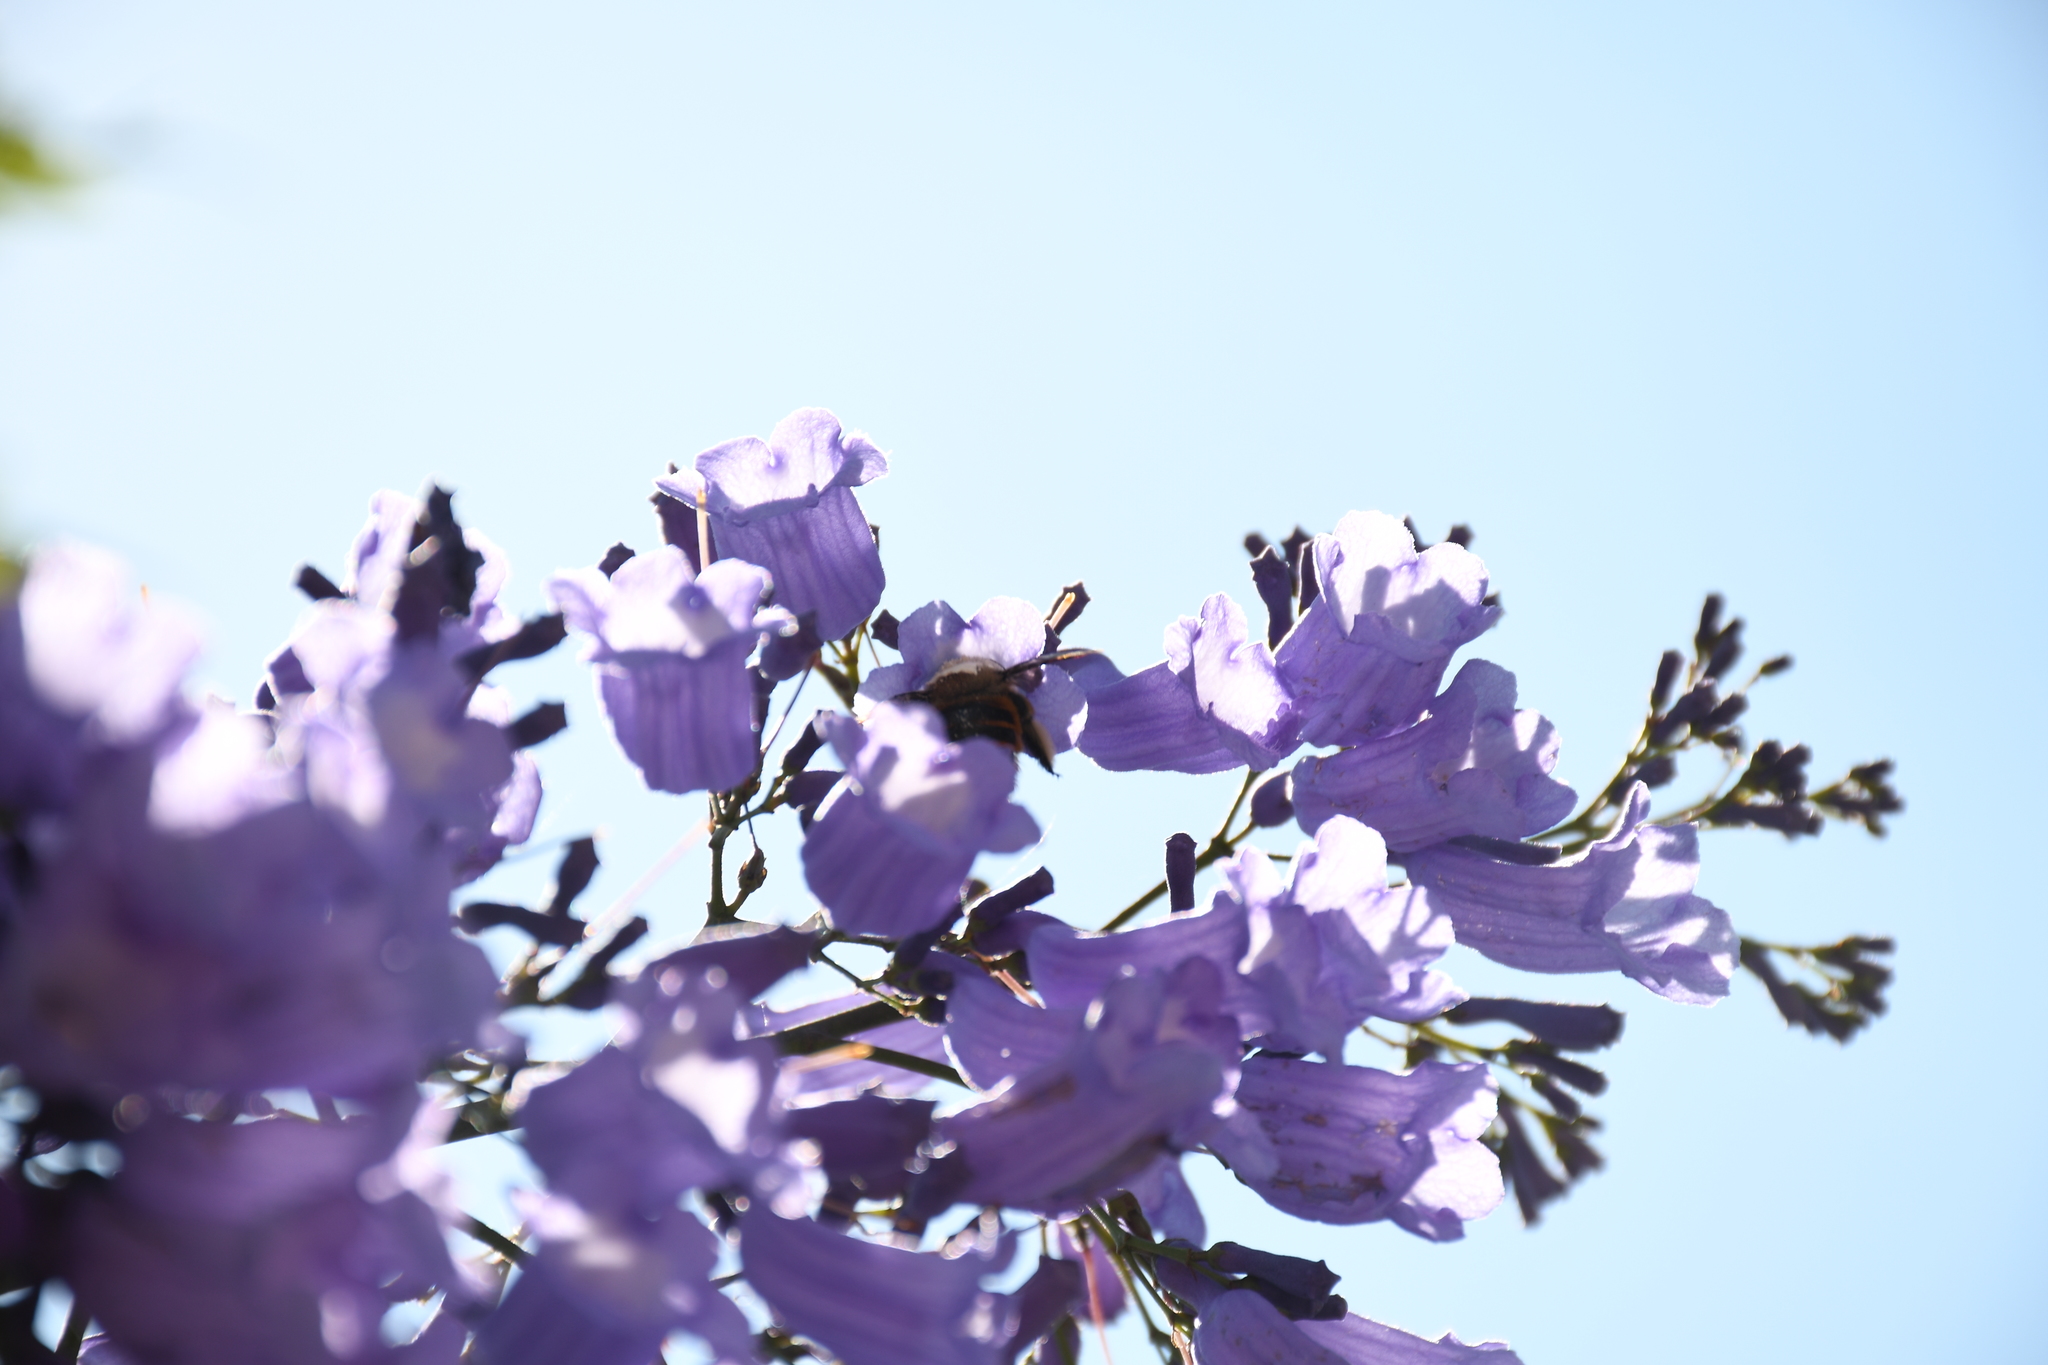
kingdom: Animalia
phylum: Arthropoda
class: Insecta
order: Hymenoptera
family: Apidae
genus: Xylocopa
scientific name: Xylocopa tabaniformis
